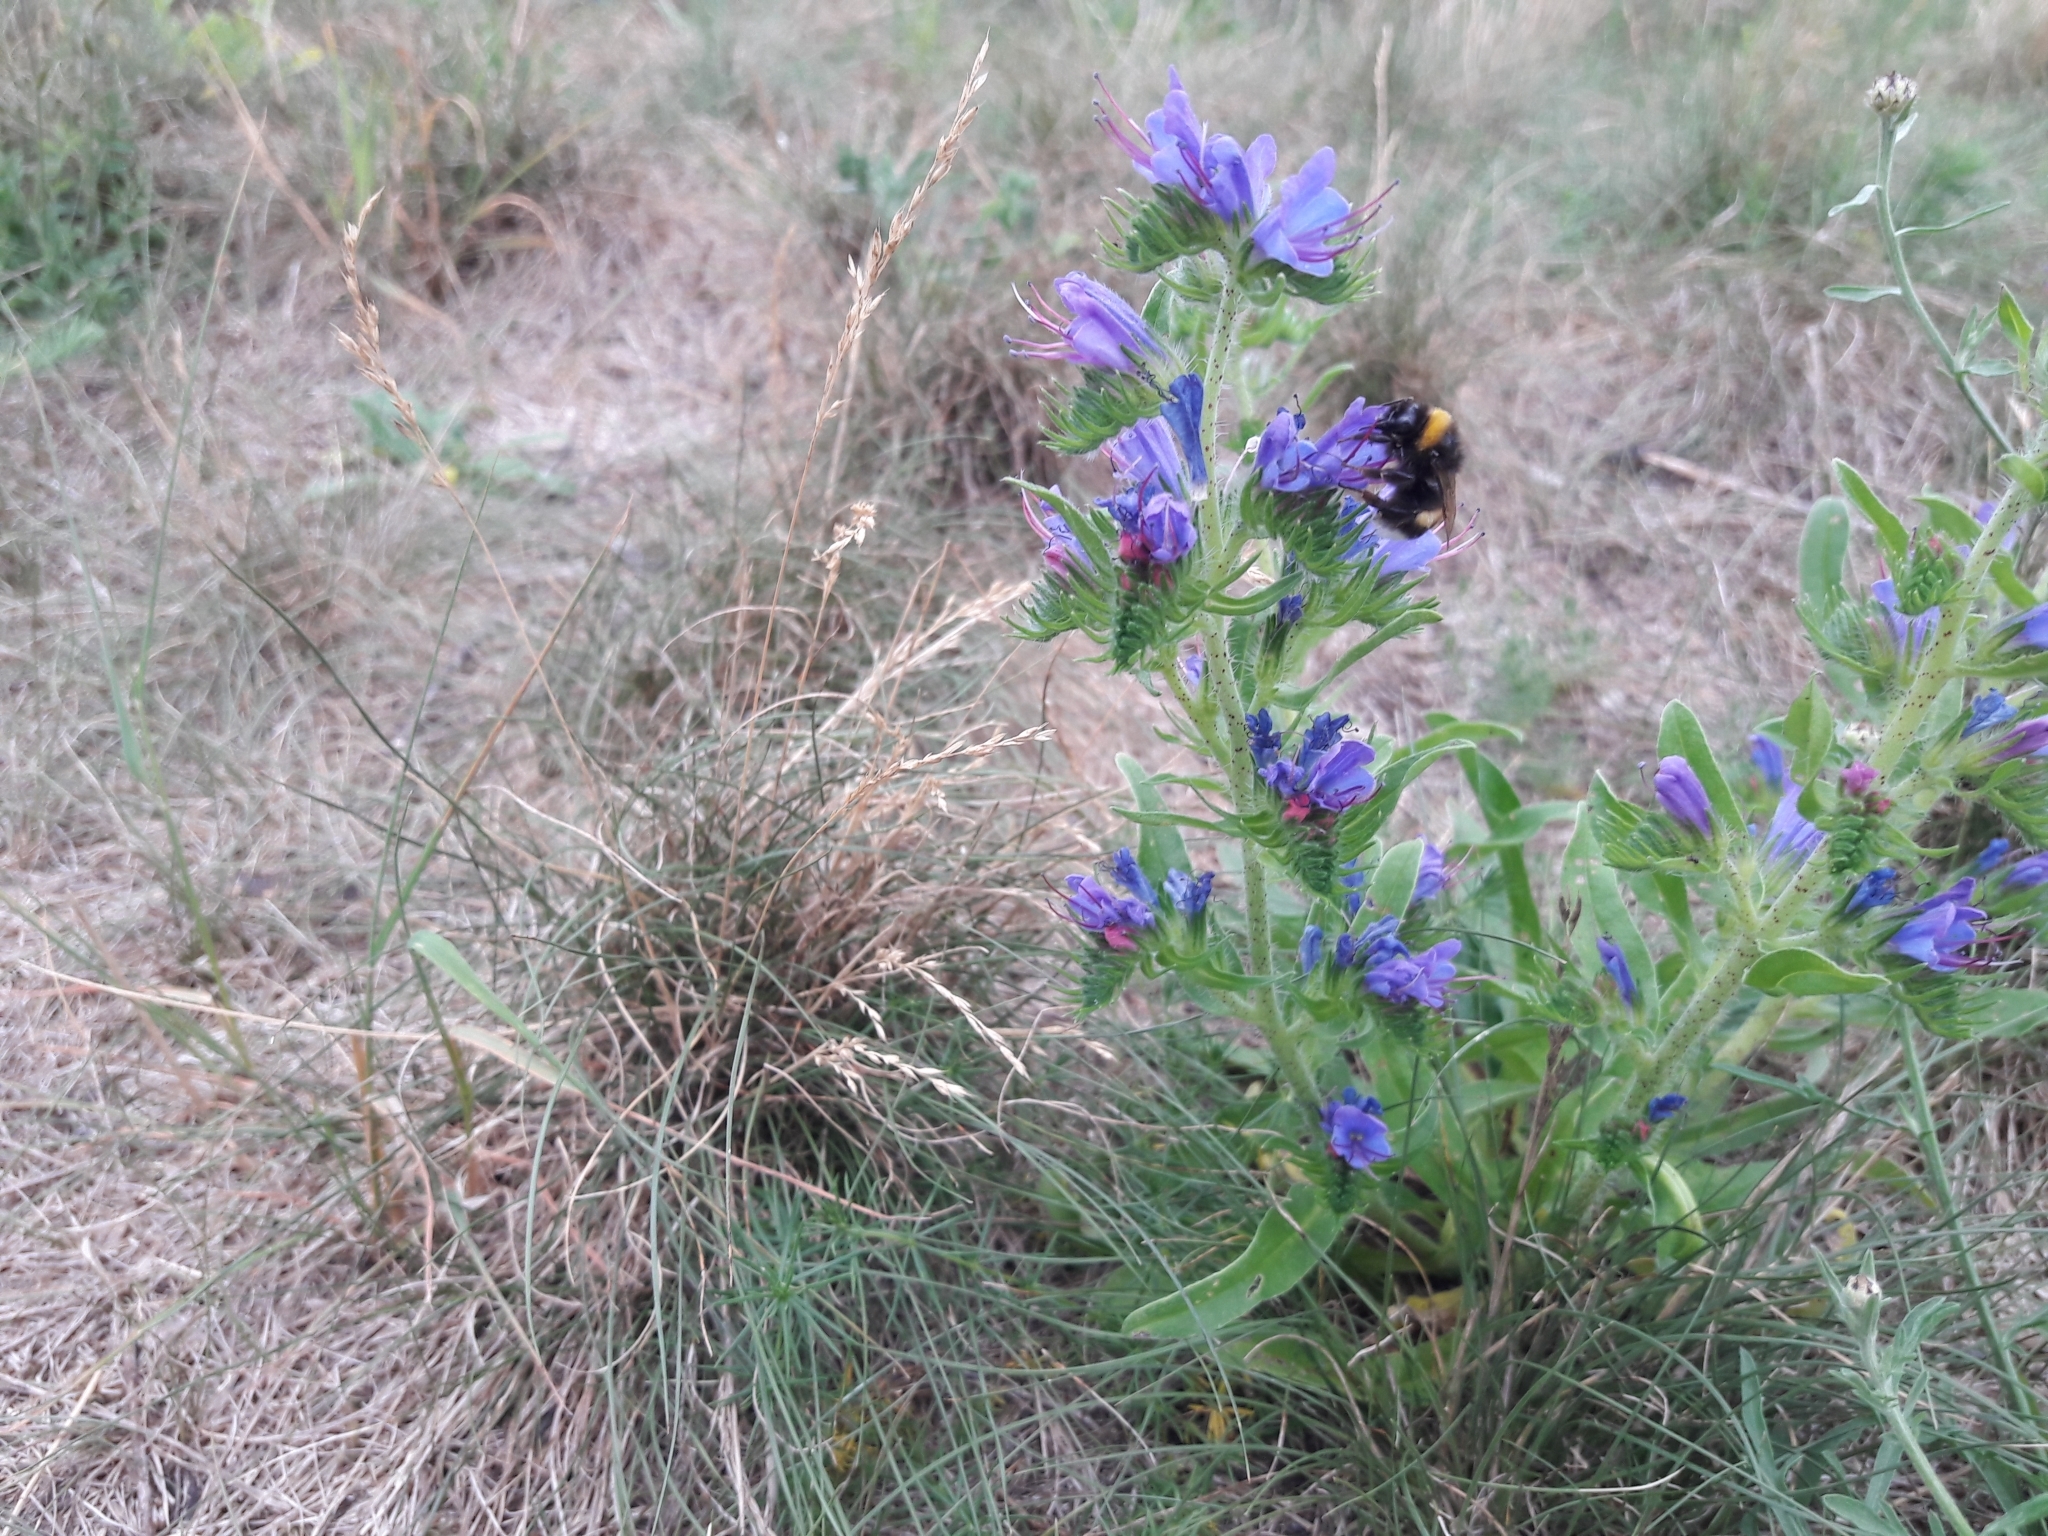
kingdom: Plantae
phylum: Tracheophyta
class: Magnoliopsida
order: Boraginales
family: Boraginaceae
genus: Echium
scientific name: Echium vulgare
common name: Common viper's bugloss
